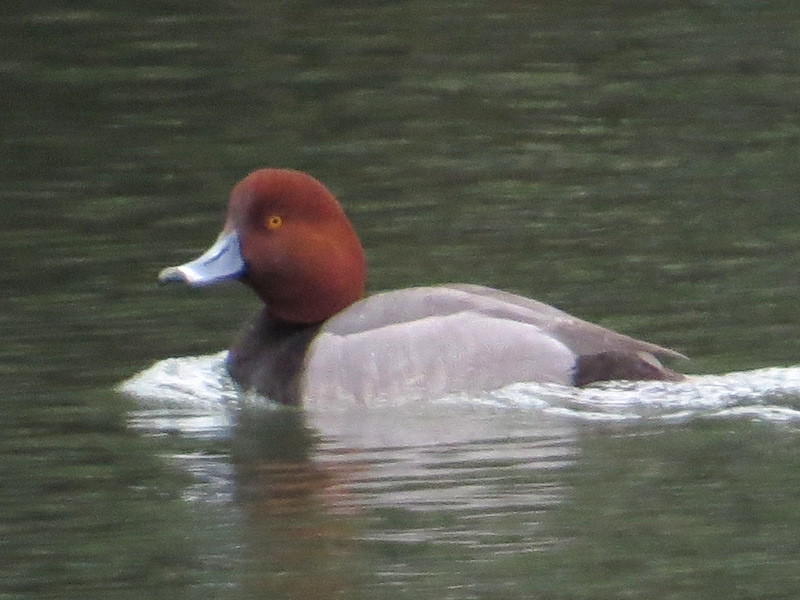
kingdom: Animalia
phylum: Chordata
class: Aves
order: Anseriformes
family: Anatidae
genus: Aythya
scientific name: Aythya americana
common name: Redhead
